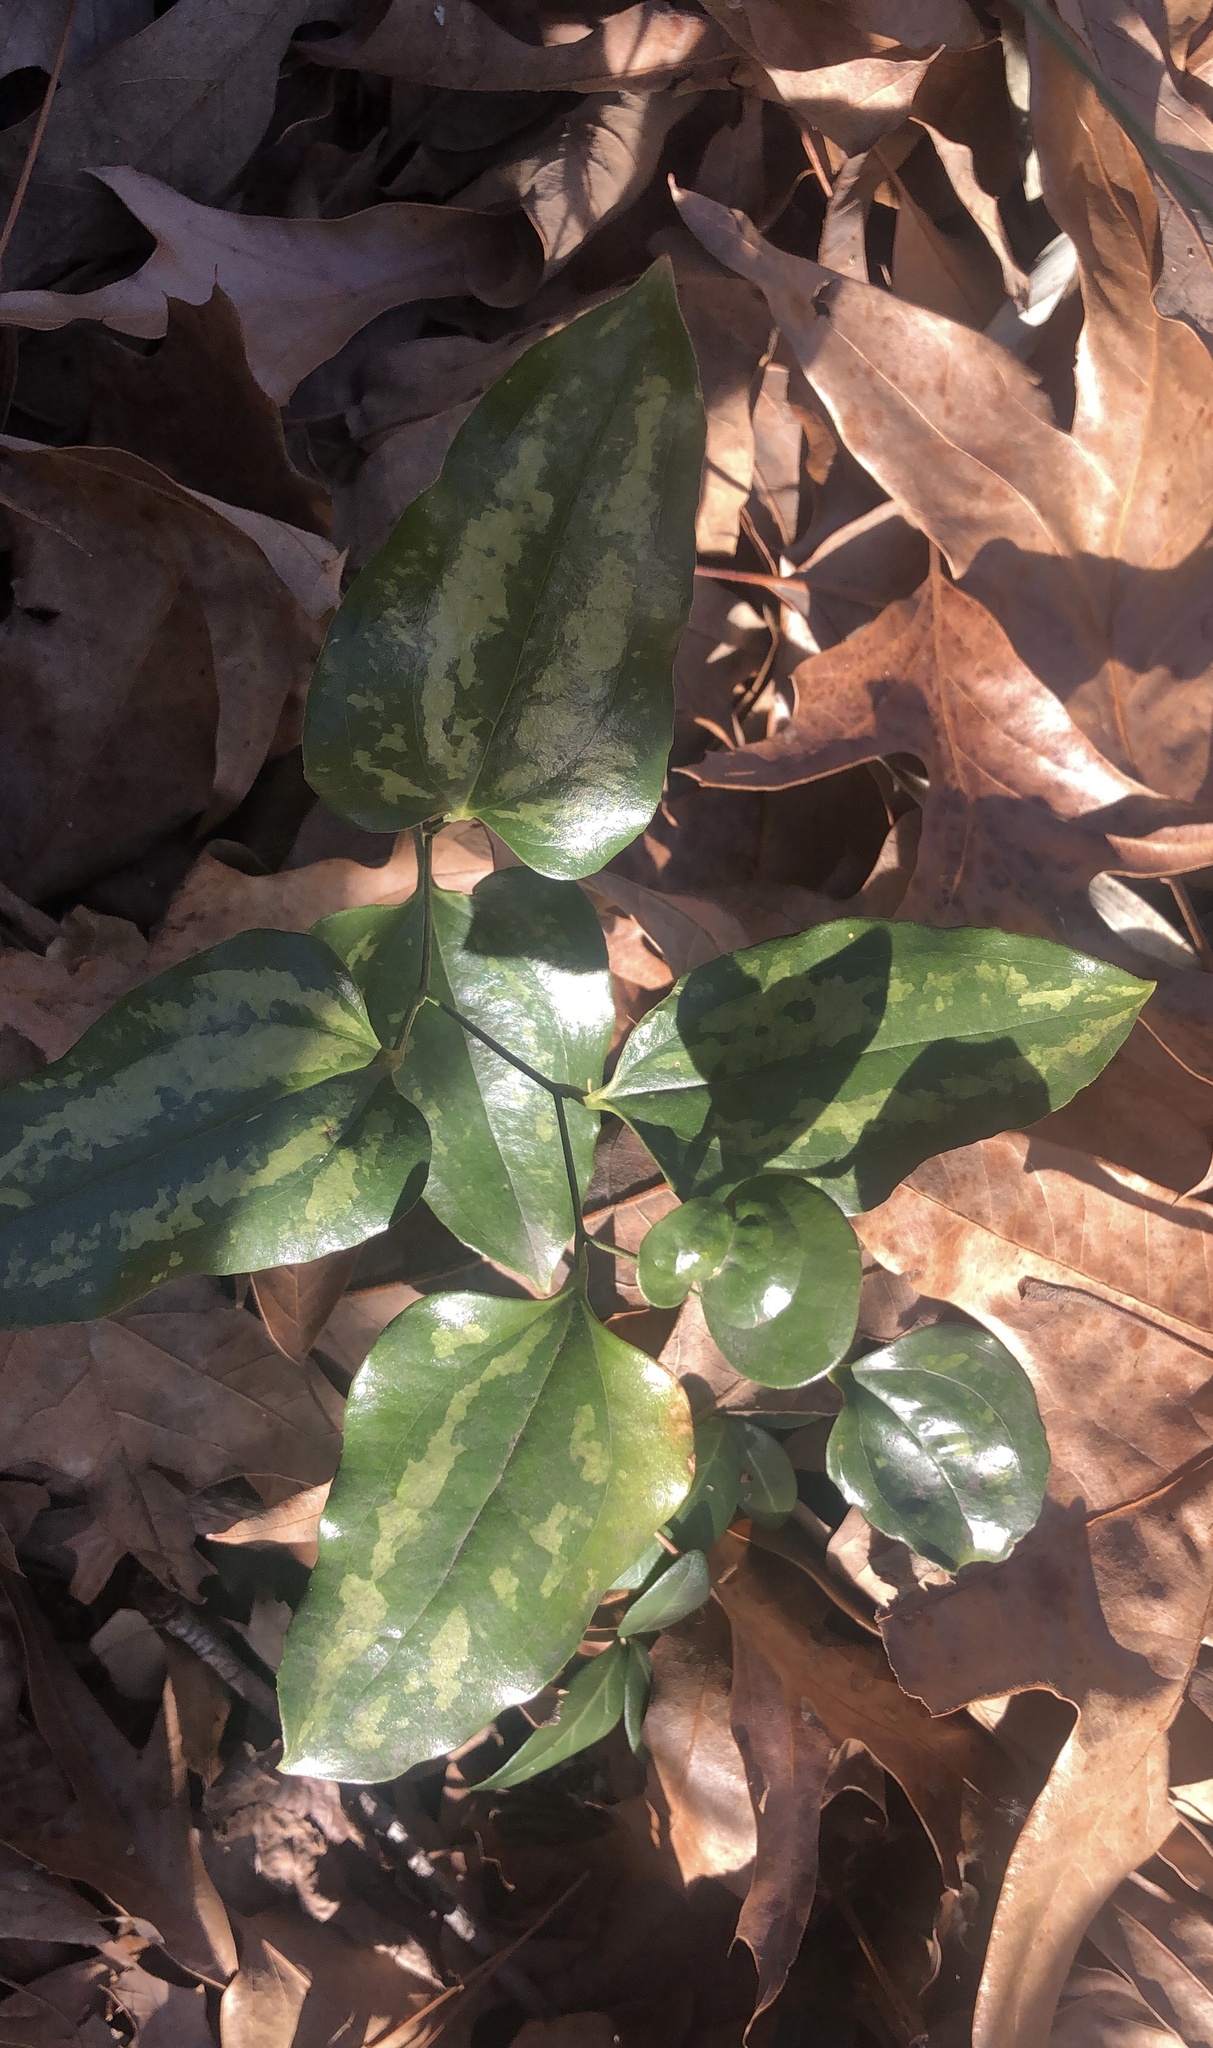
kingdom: Plantae
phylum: Tracheophyta
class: Liliopsida
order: Liliales
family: Smilacaceae
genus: Smilax
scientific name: Smilax maritima
